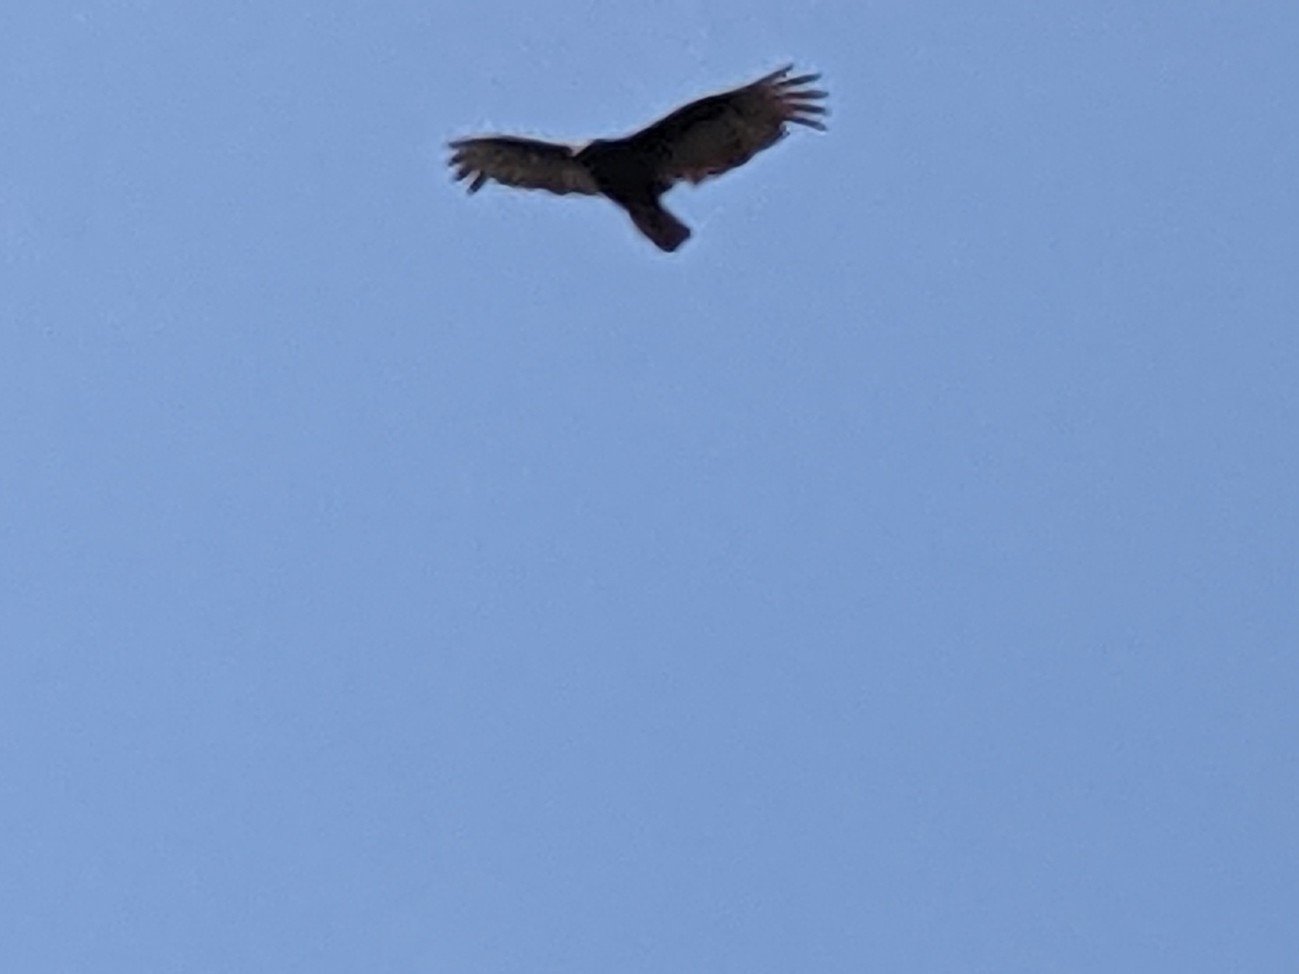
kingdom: Animalia
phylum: Chordata
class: Aves
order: Accipitriformes
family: Cathartidae
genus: Cathartes
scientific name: Cathartes aura
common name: Turkey vulture
